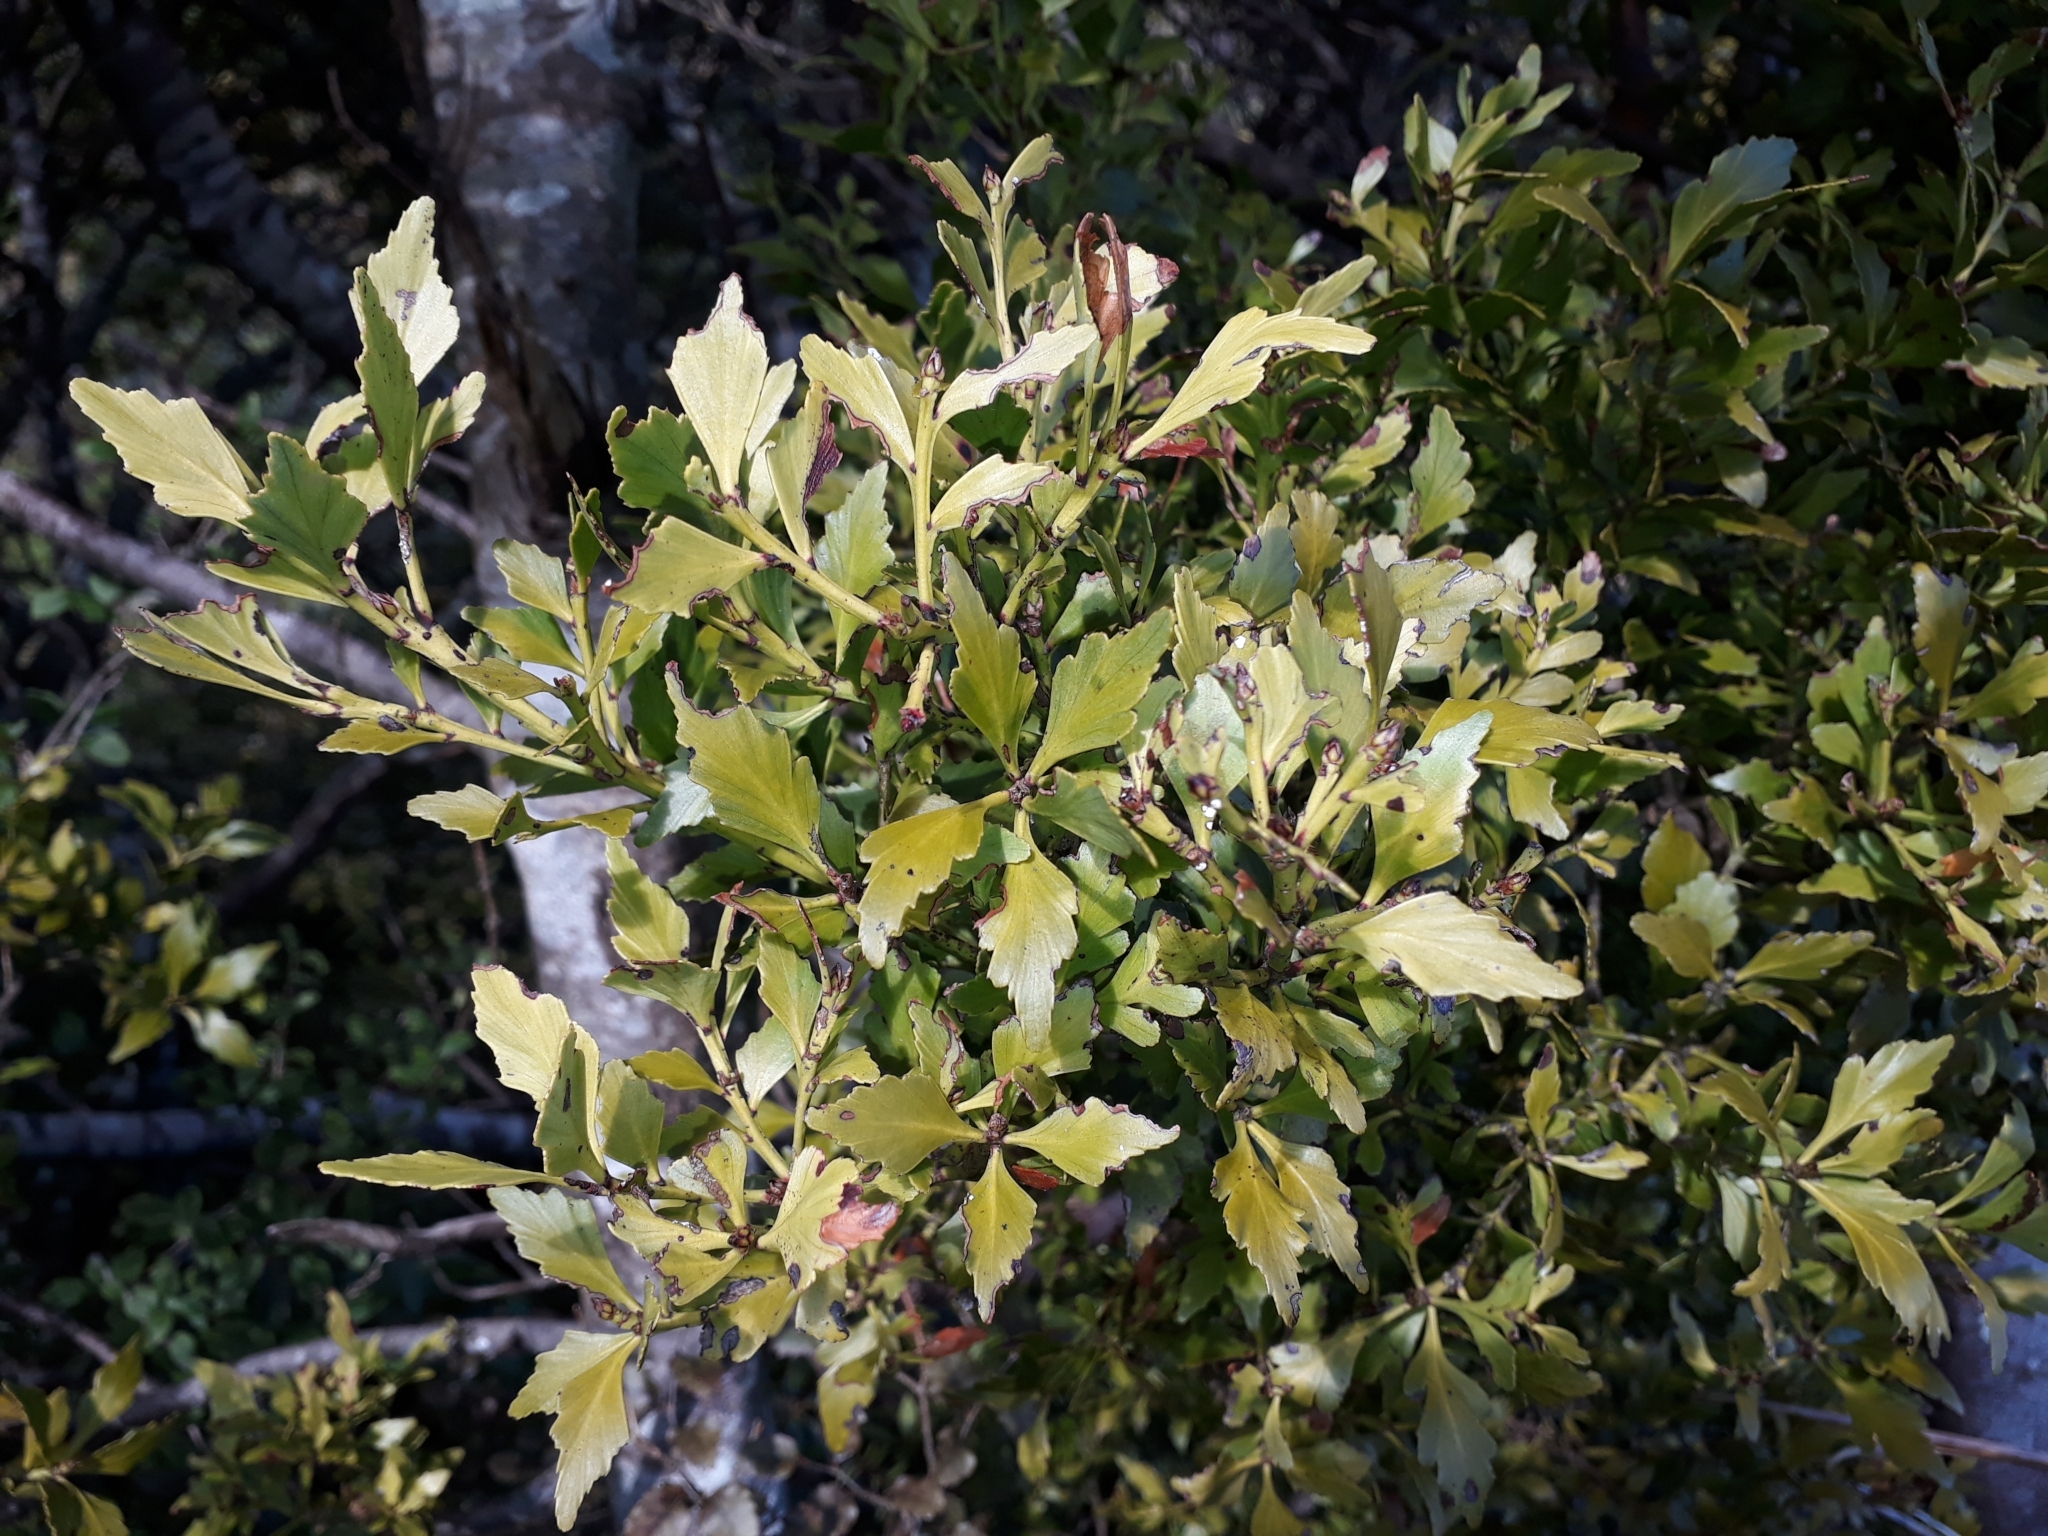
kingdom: Plantae
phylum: Tracheophyta
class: Pinopsida
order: Pinales
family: Phyllocladaceae
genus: Phyllocladus
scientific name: Phyllocladus trichomanoides
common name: Celery pine
